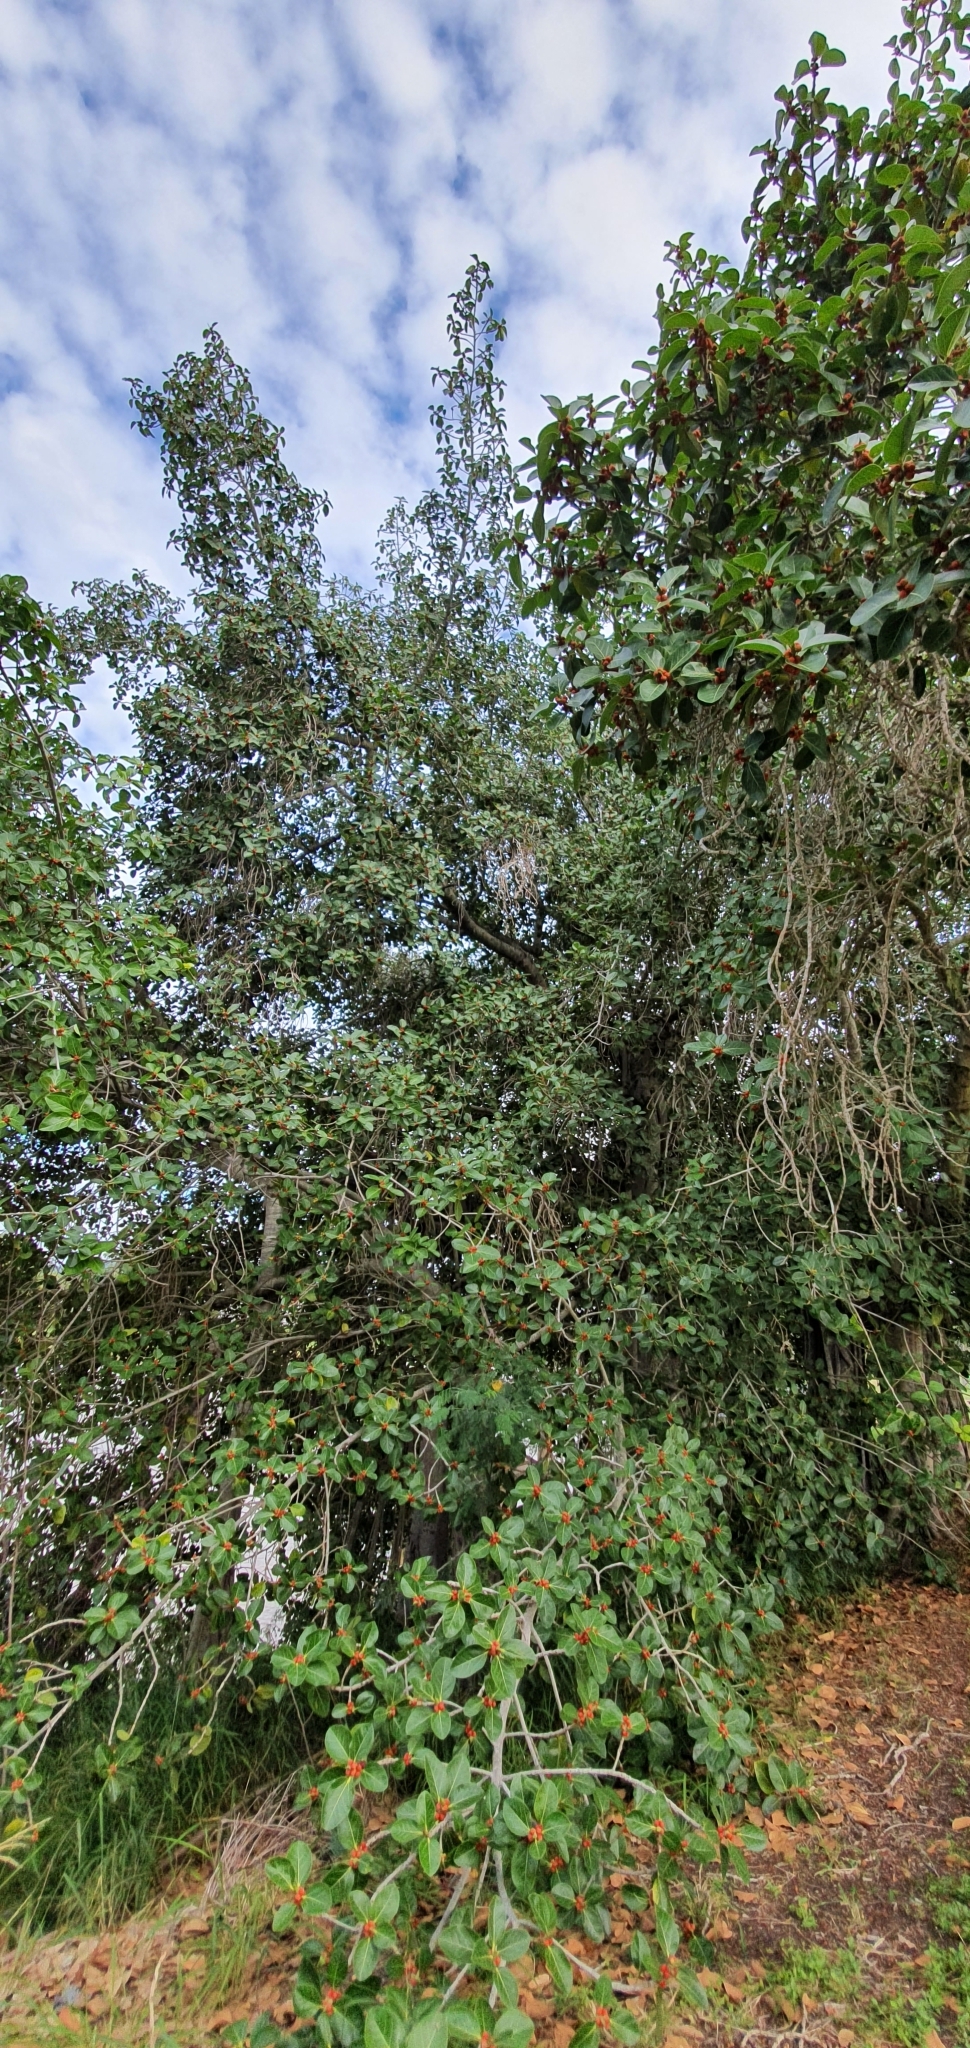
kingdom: Plantae
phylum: Tracheophyta
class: Magnoliopsida
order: Rosales
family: Moraceae
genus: Ficus
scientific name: Ficus benghalensis
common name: Indian banyan
